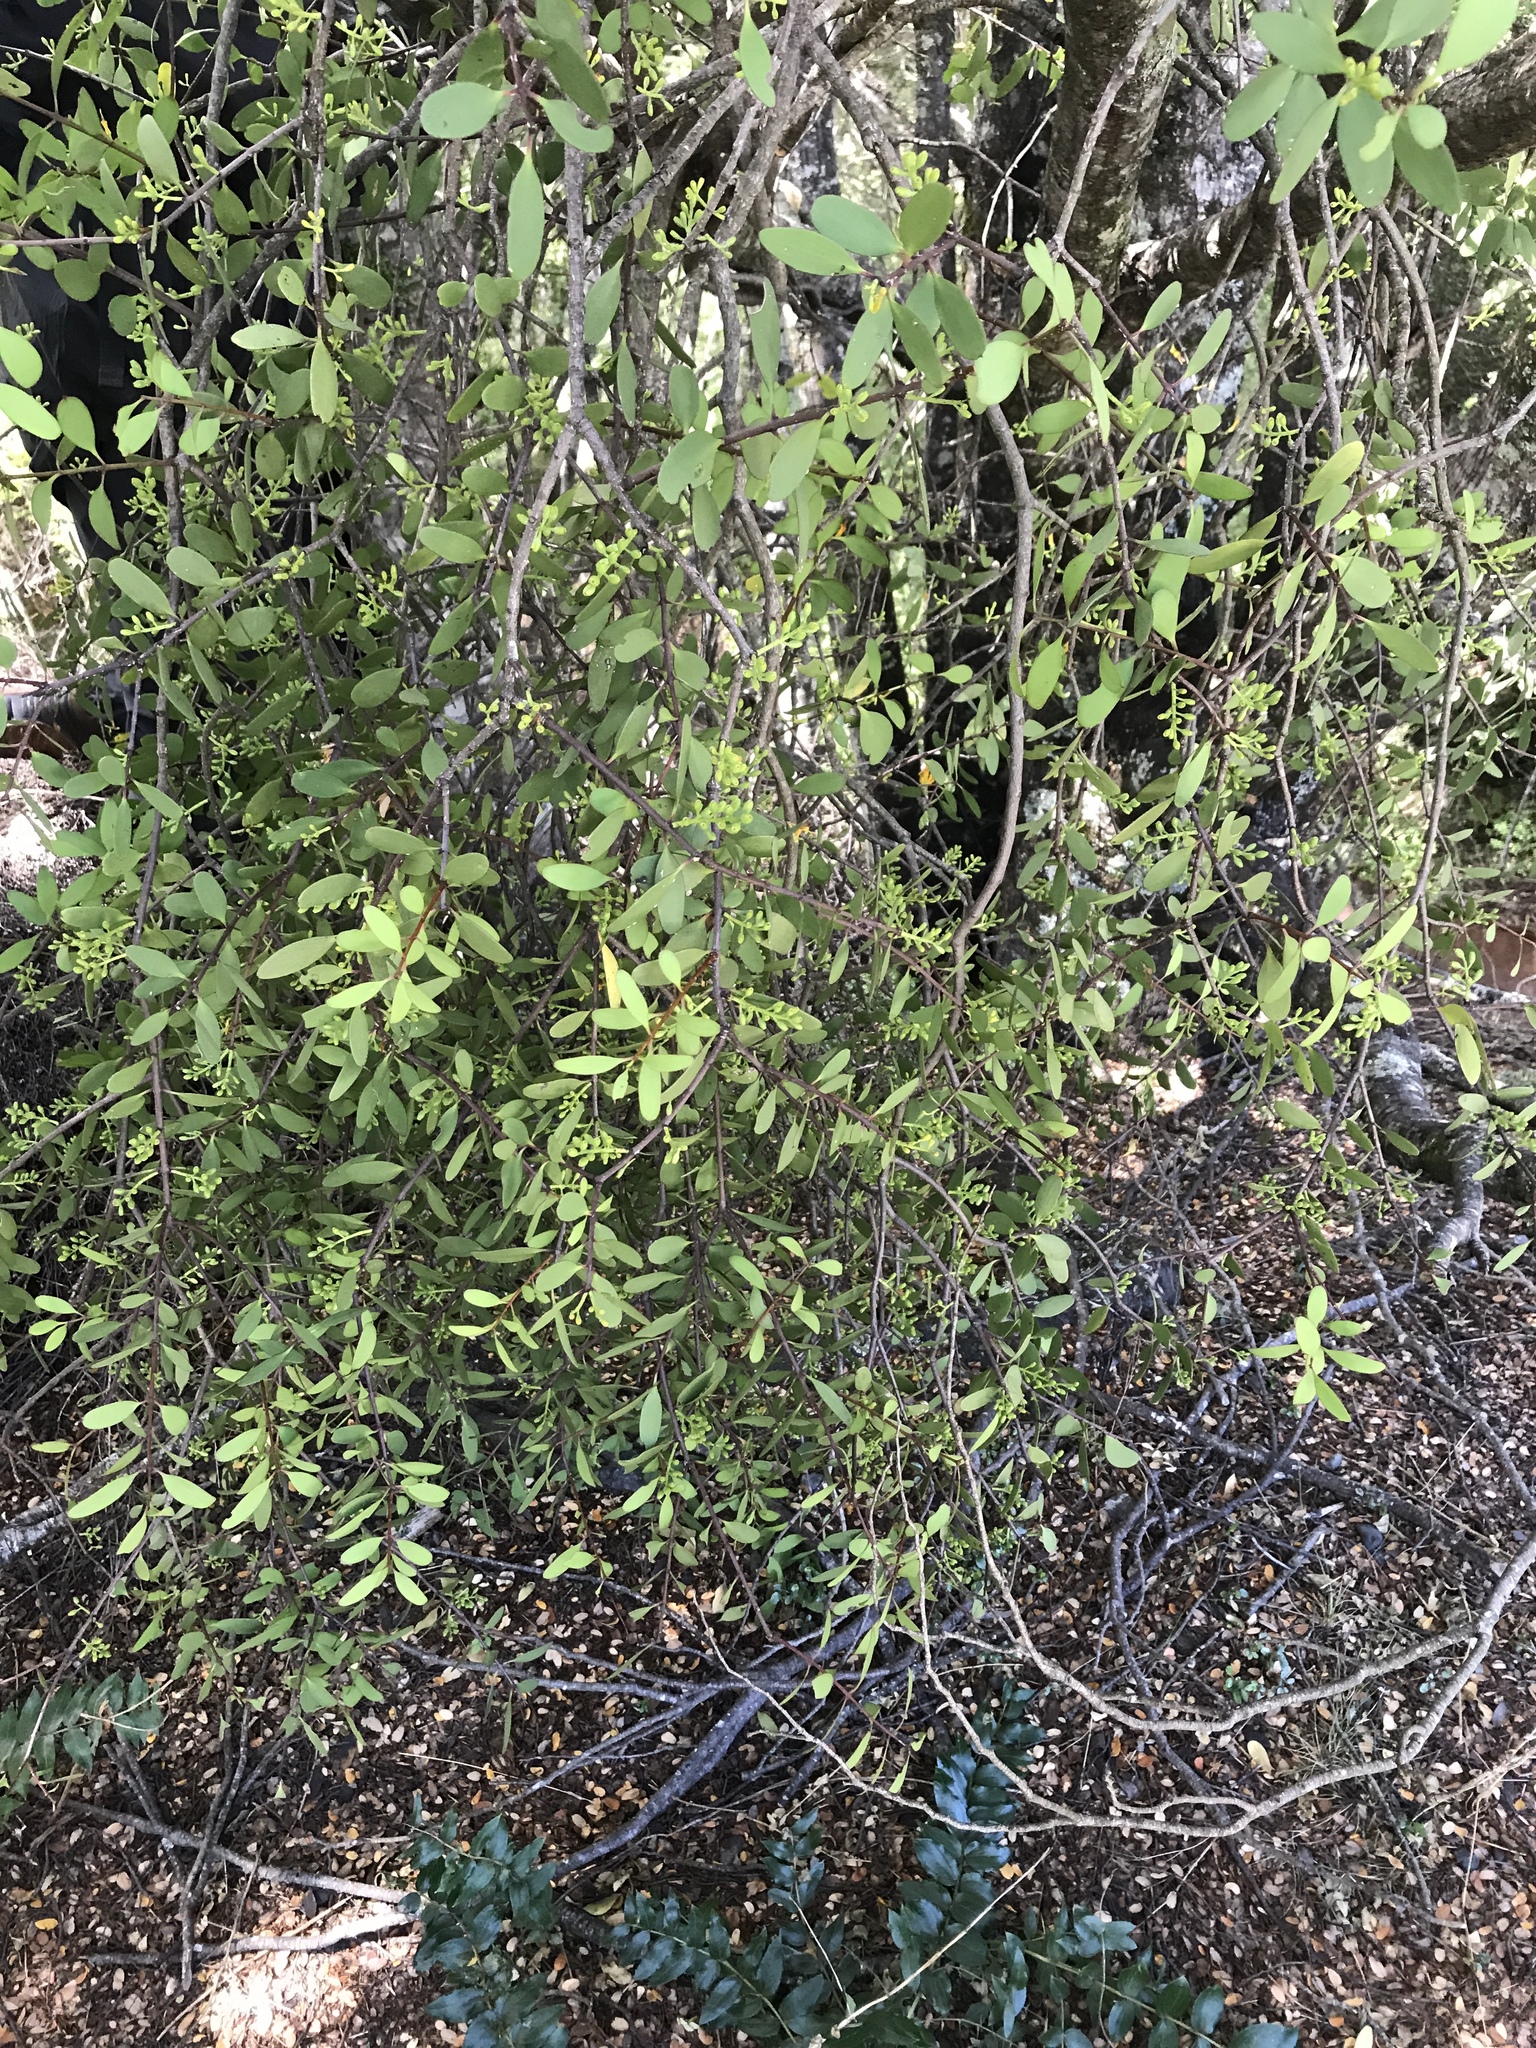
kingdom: Plantae
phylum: Tracheophyta
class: Magnoliopsida
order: Santalales
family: Loranthaceae
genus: Alepis
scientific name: Alepis flavida
